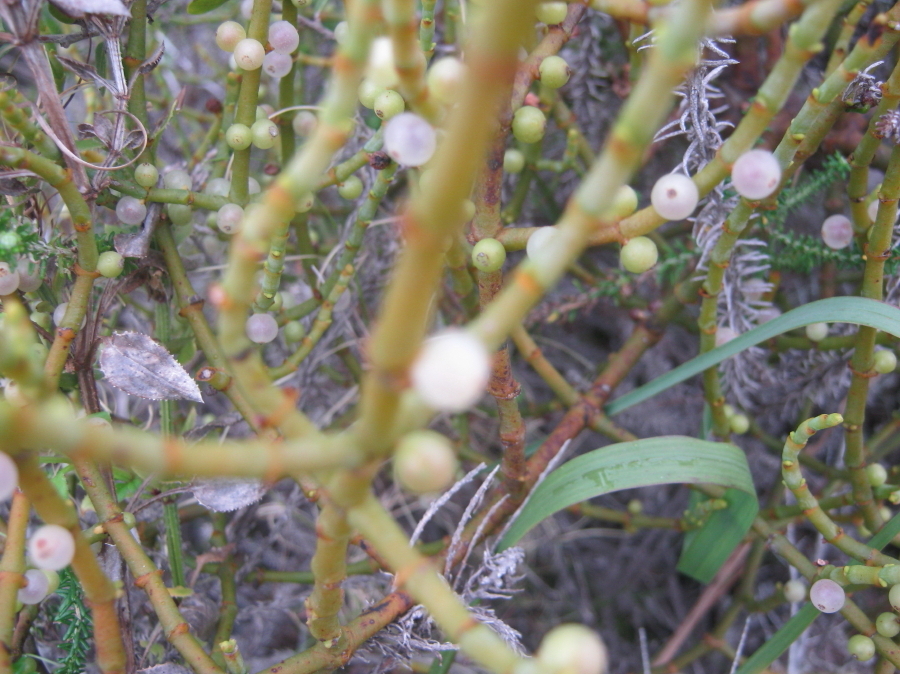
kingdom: Plantae
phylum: Tracheophyta
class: Magnoliopsida
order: Santalales
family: Viscaceae
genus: Viscum
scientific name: Viscum hoolei
